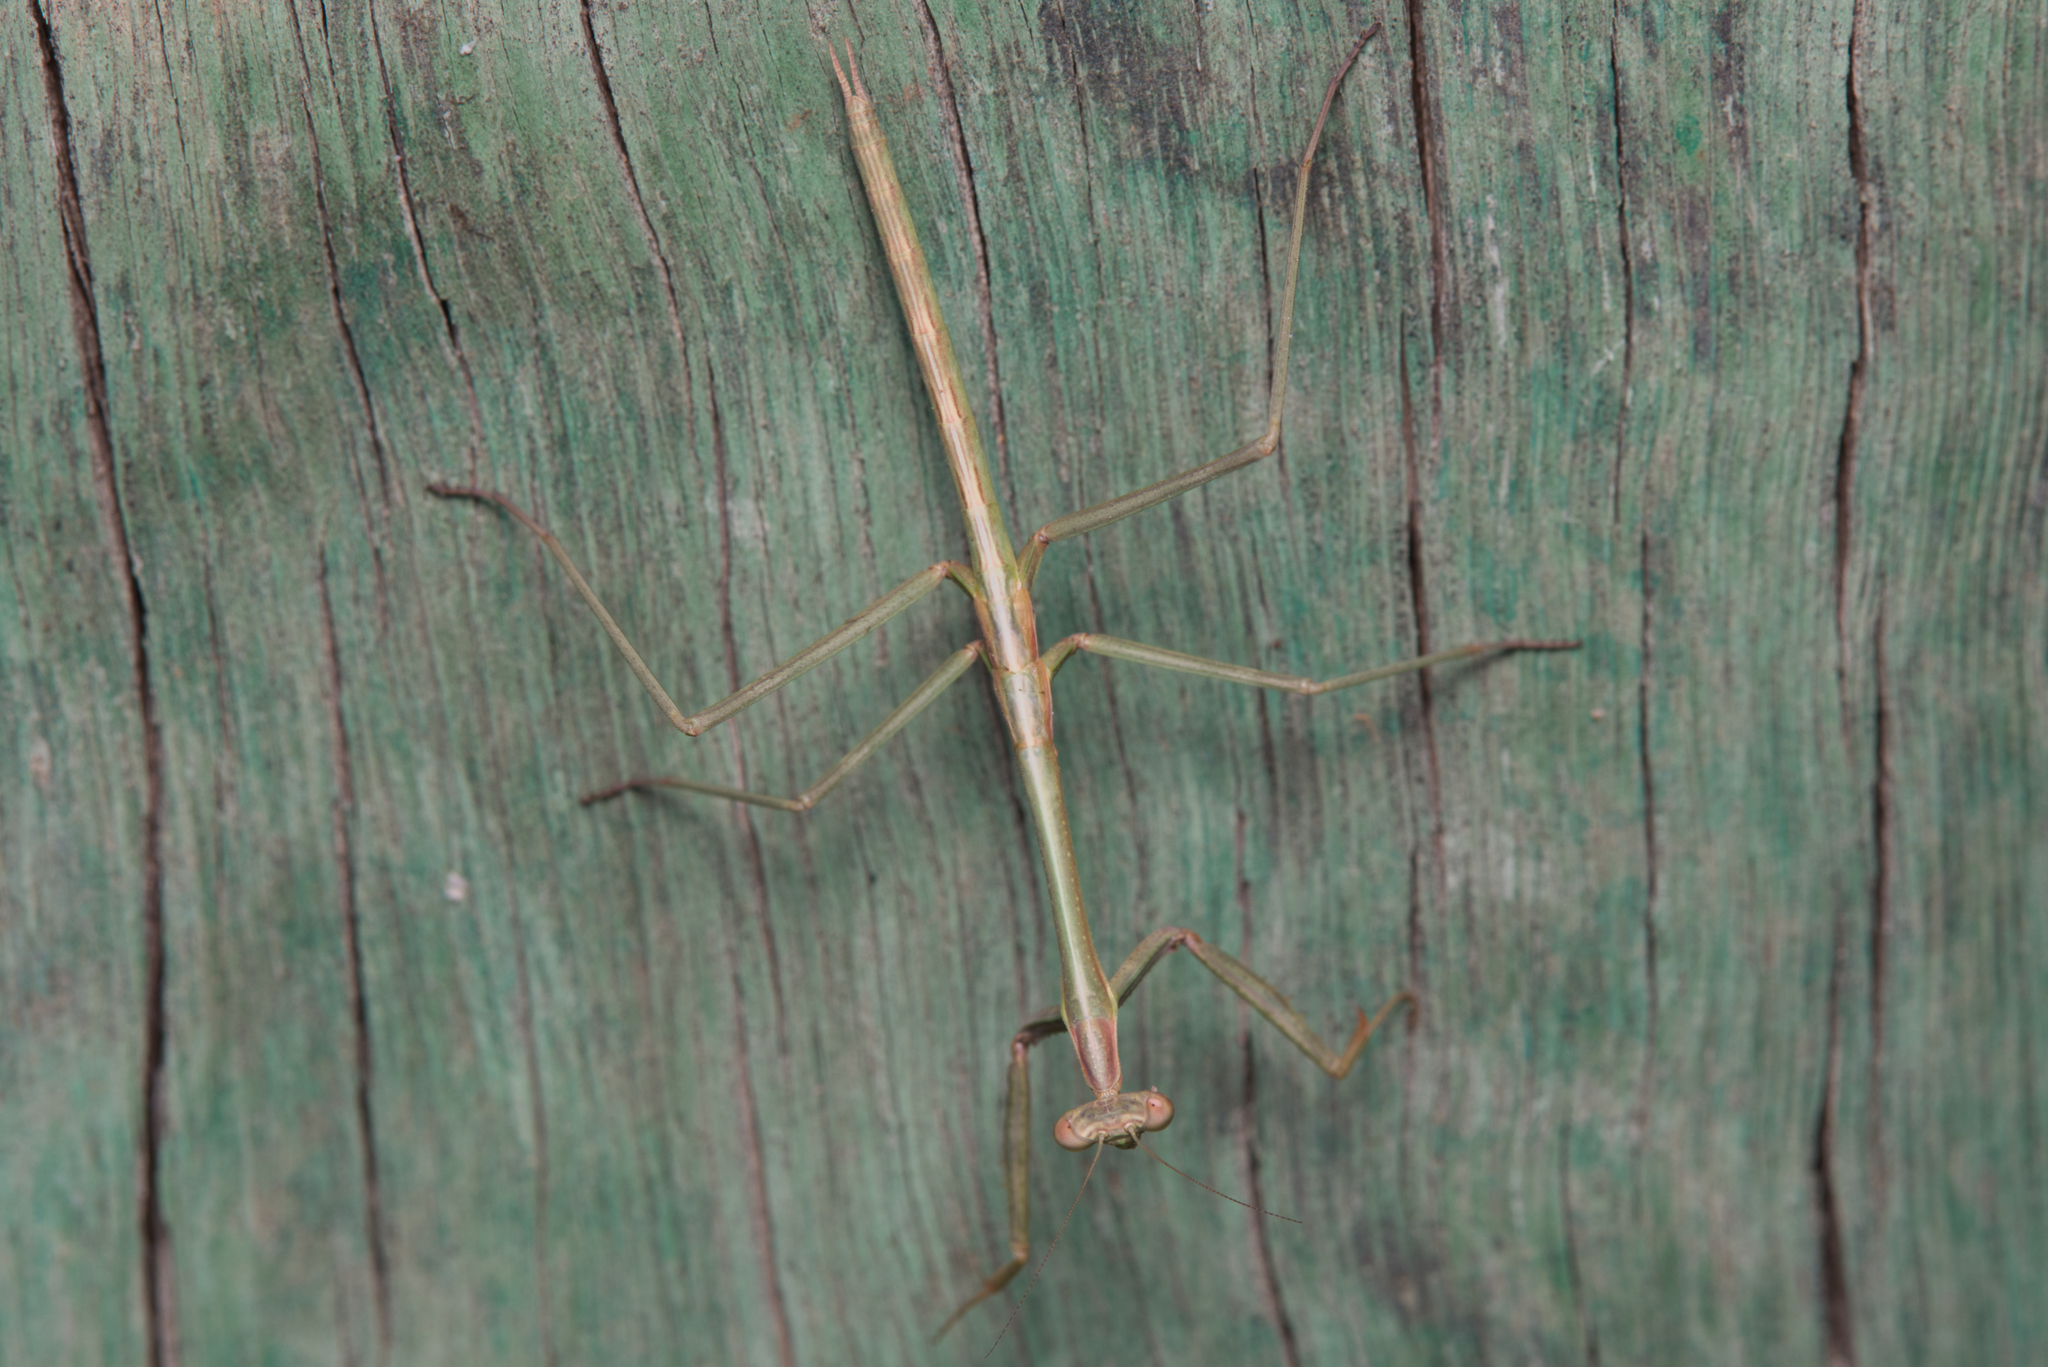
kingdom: Animalia
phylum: Arthropoda
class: Insecta
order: Mantodea
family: Mantidae
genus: Archimantis
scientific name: Archimantis latistyla
